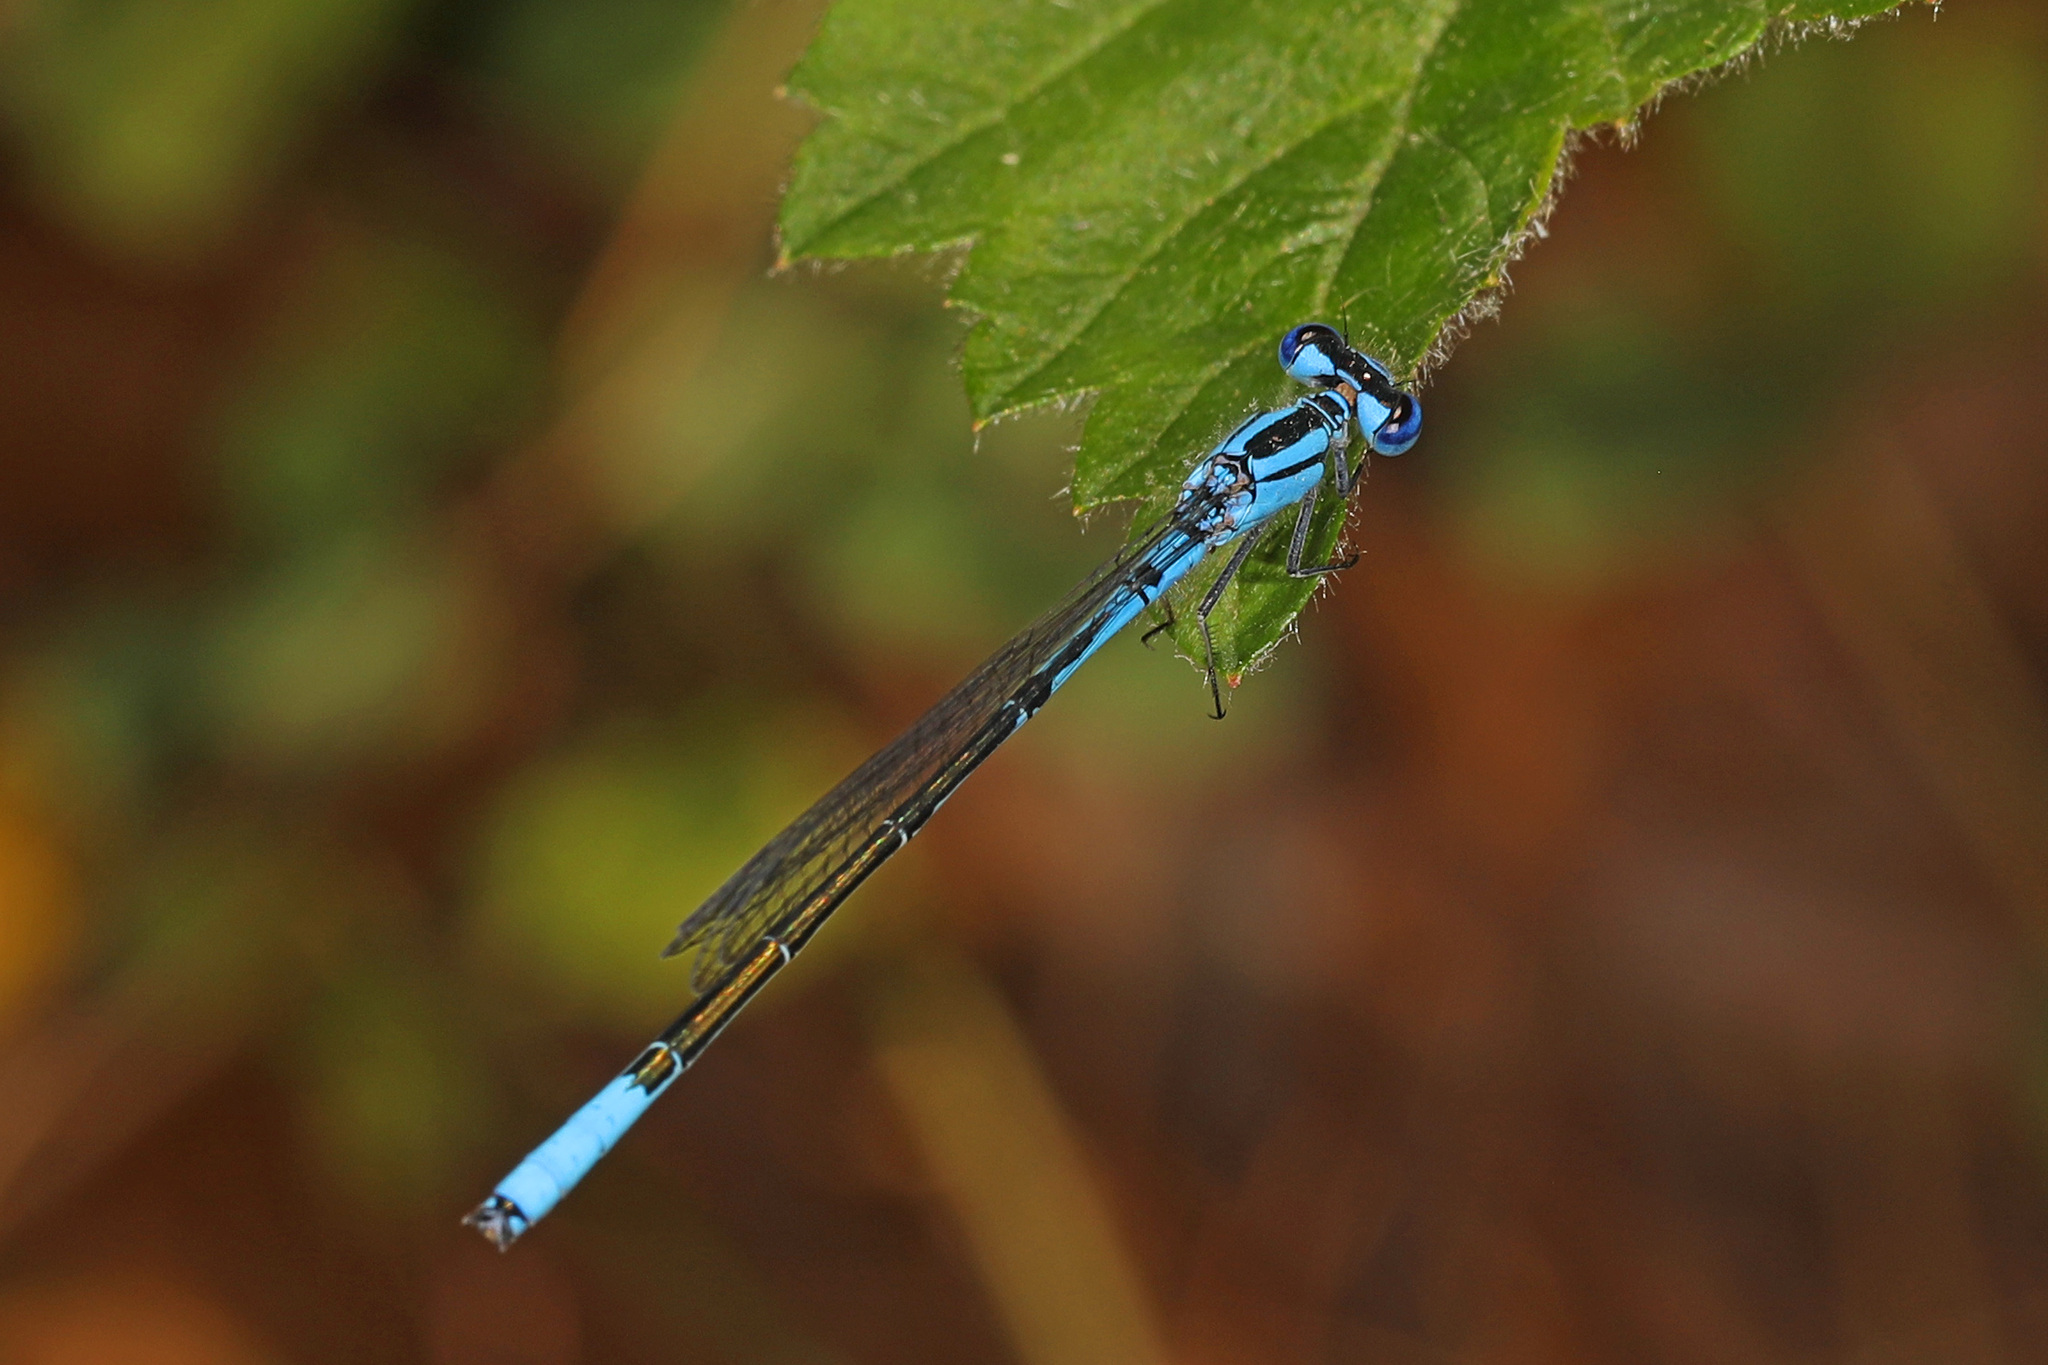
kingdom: Animalia
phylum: Arthropoda
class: Insecta
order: Odonata
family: Coenagrionidae
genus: Enallagma
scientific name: Enallagma aspersum
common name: Azure bluet
